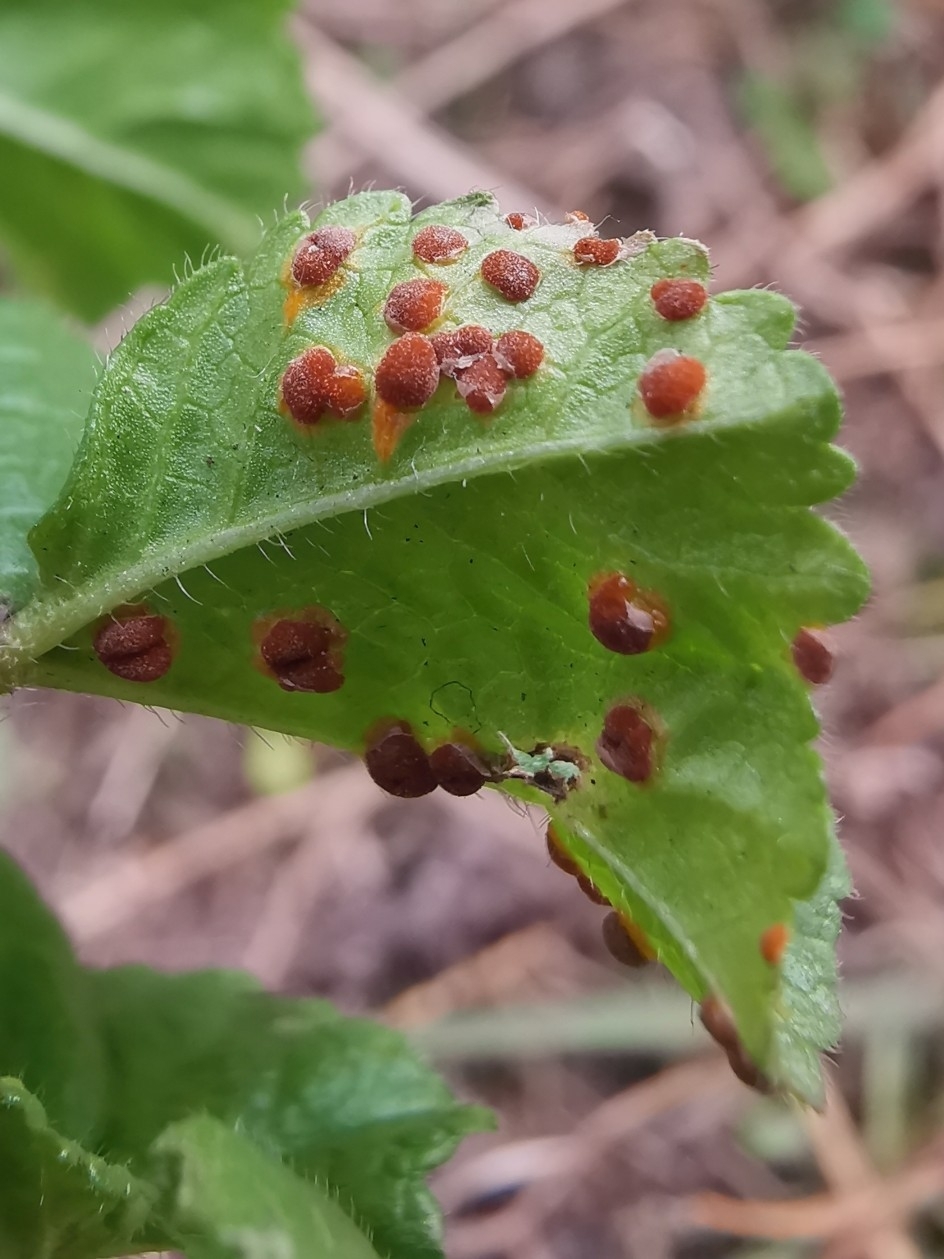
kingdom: Fungi
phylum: Basidiomycota
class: Pucciniomycetes
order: Pucciniales
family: Pucciniaceae
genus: Puccinia
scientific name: Puccinia malvacearum
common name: Hollyhock rust
